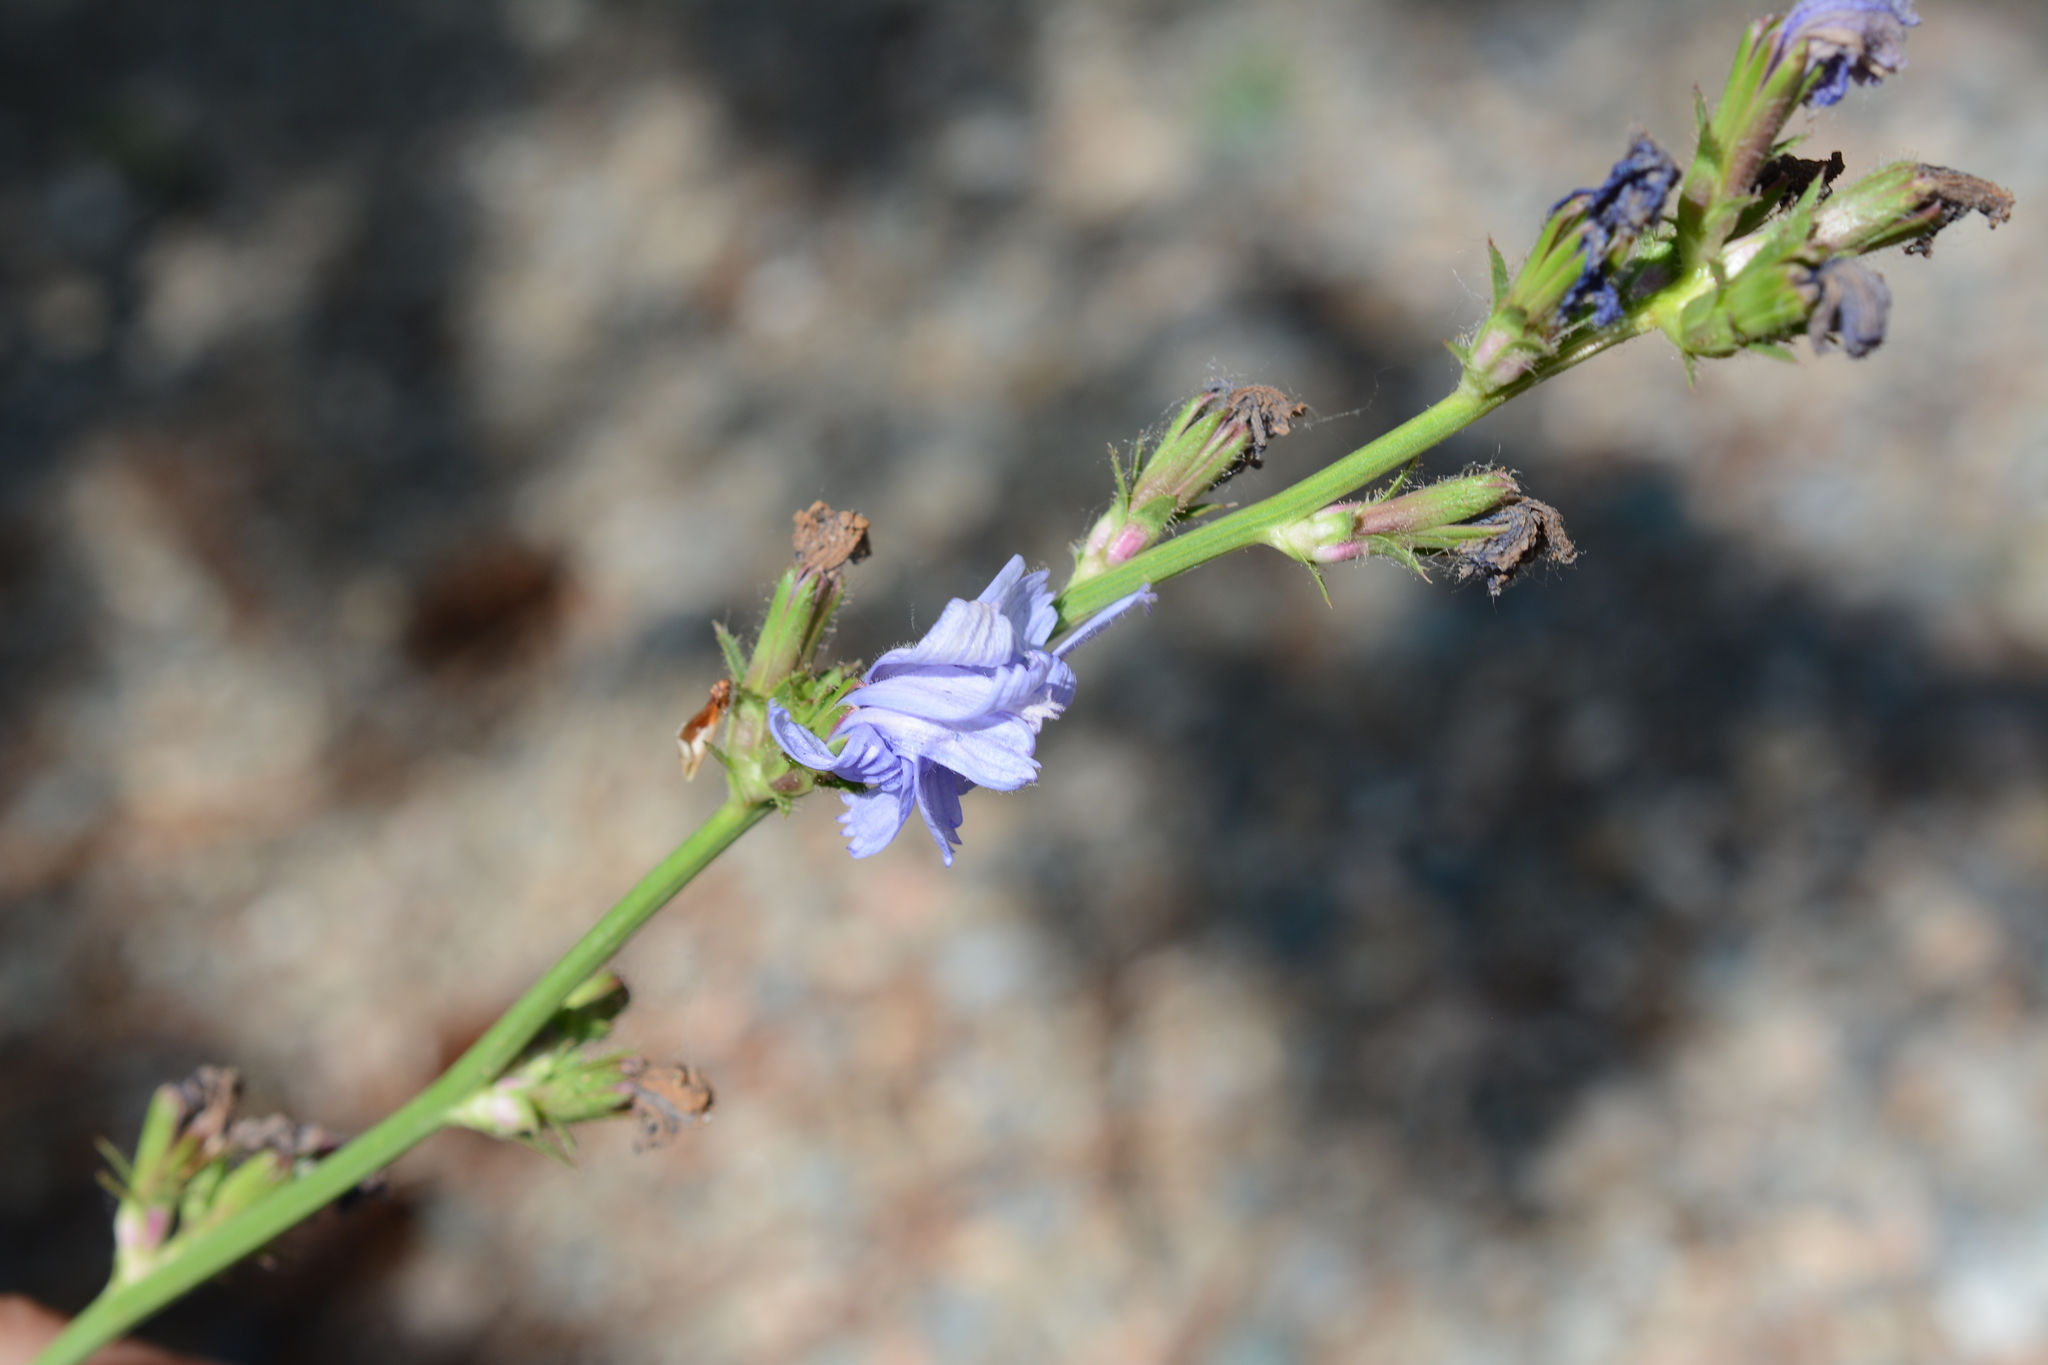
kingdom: Plantae
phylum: Tracheophyta
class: Magnoliopsida
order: Asterales
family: Asteraceae
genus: Cichorium
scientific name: Cichorium intybus
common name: Chicory
